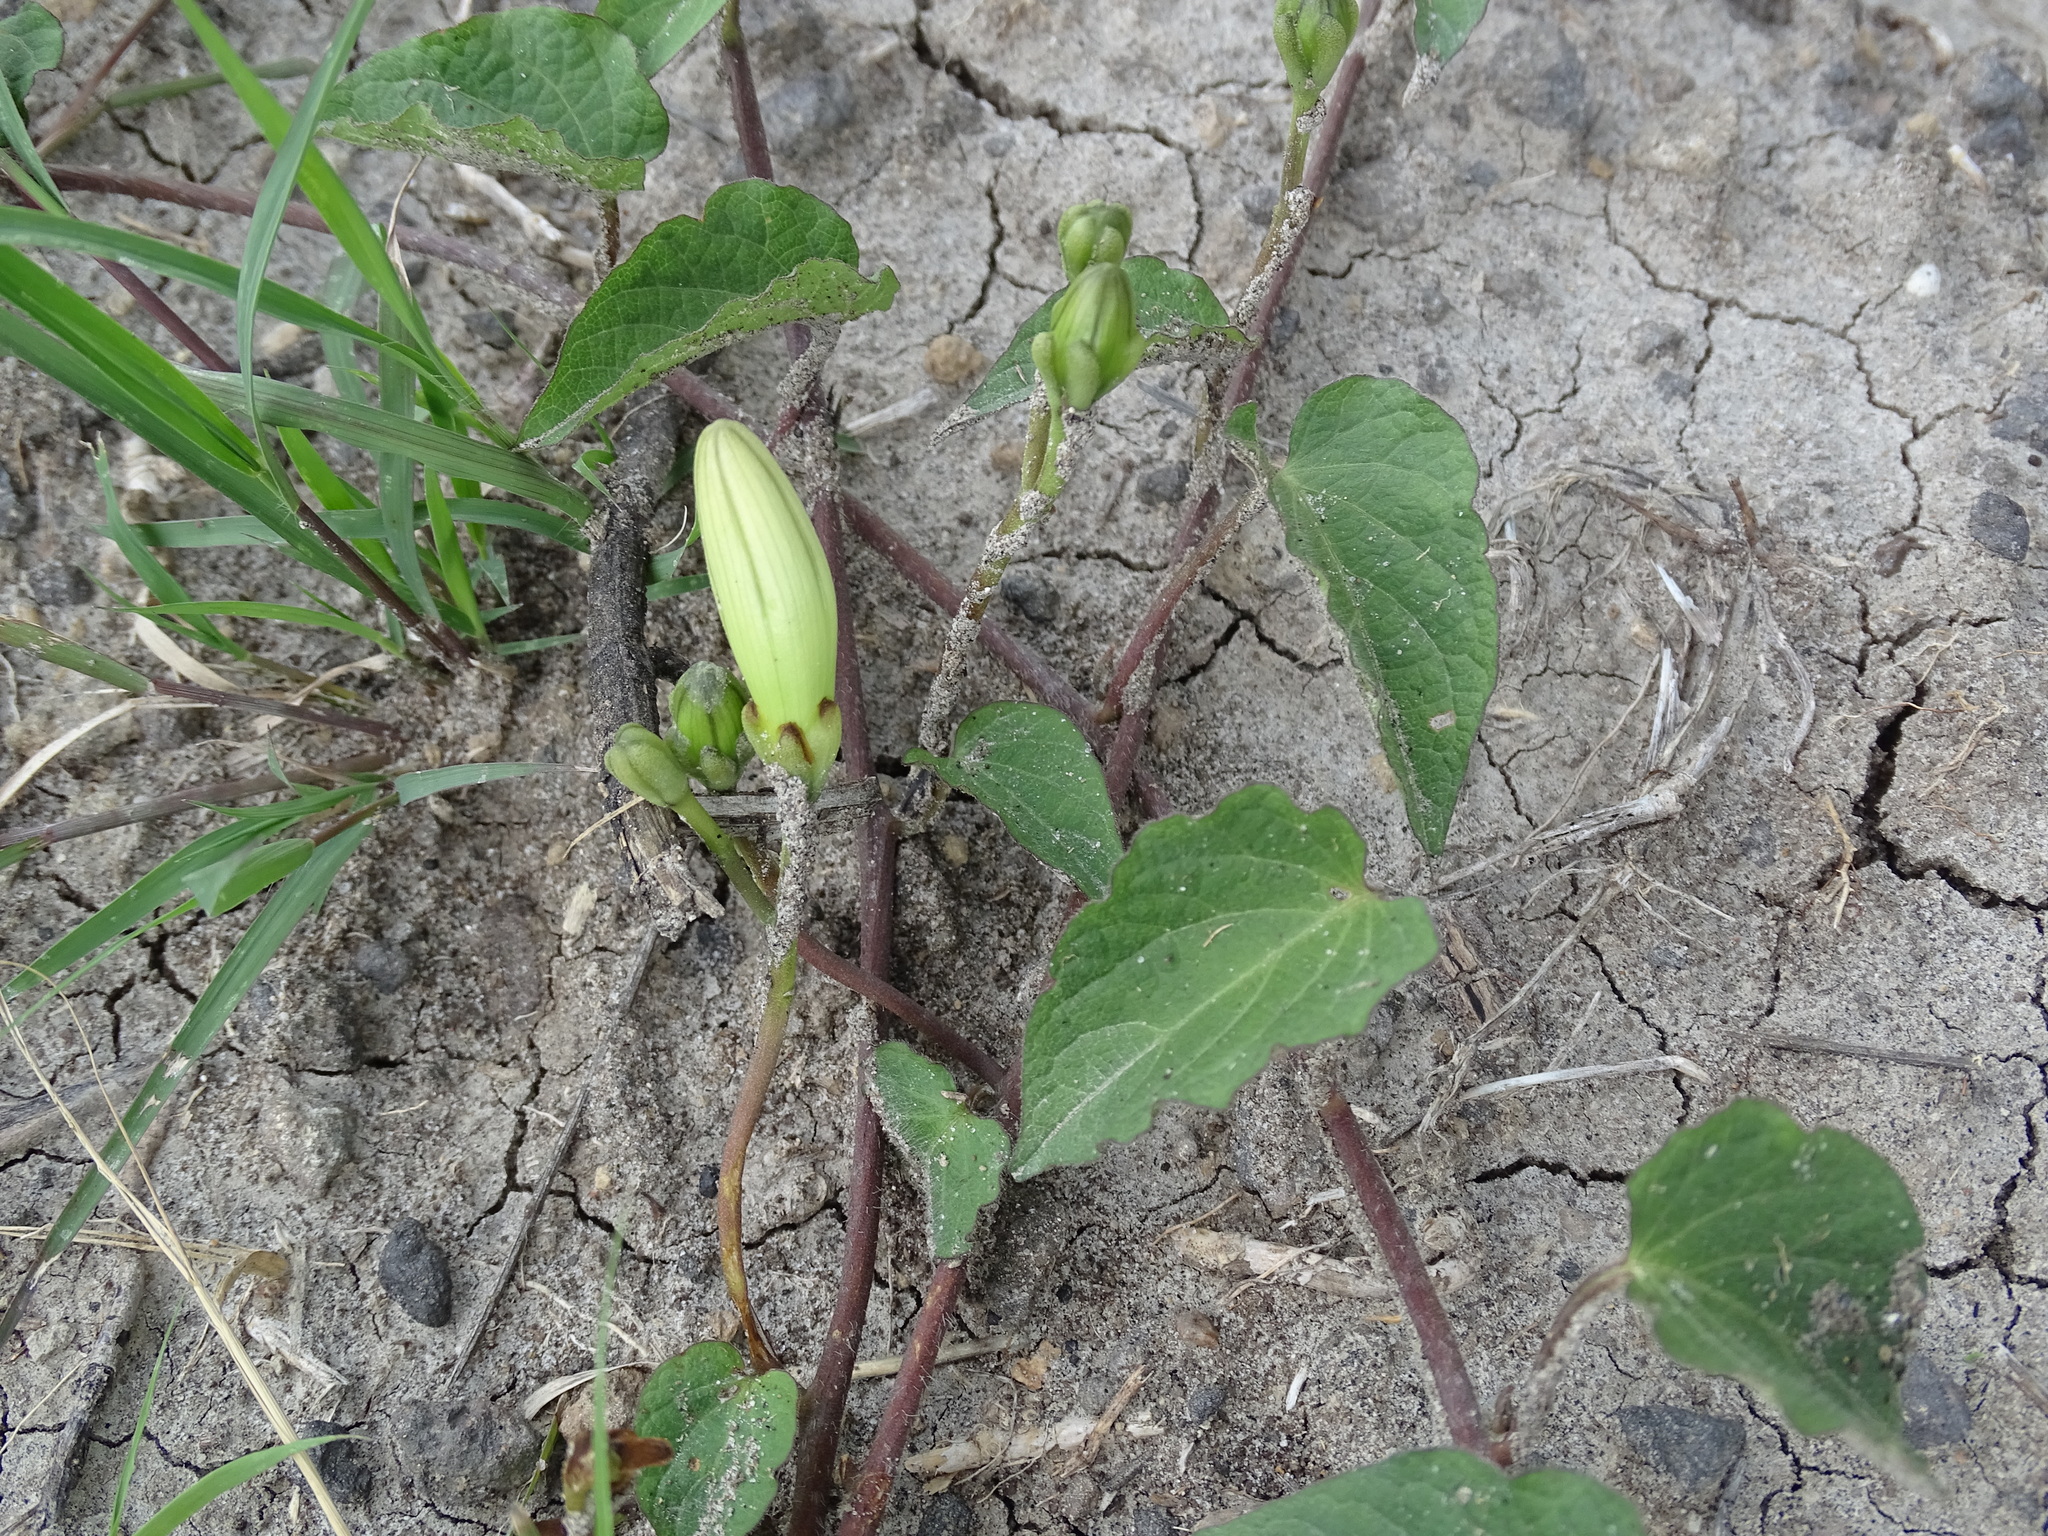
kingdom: Plantae
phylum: Tracheophyta
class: Magnoliopsida
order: Solanales
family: Convolvulaceae
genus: Ipomoea
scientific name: Ipomoea proxima
